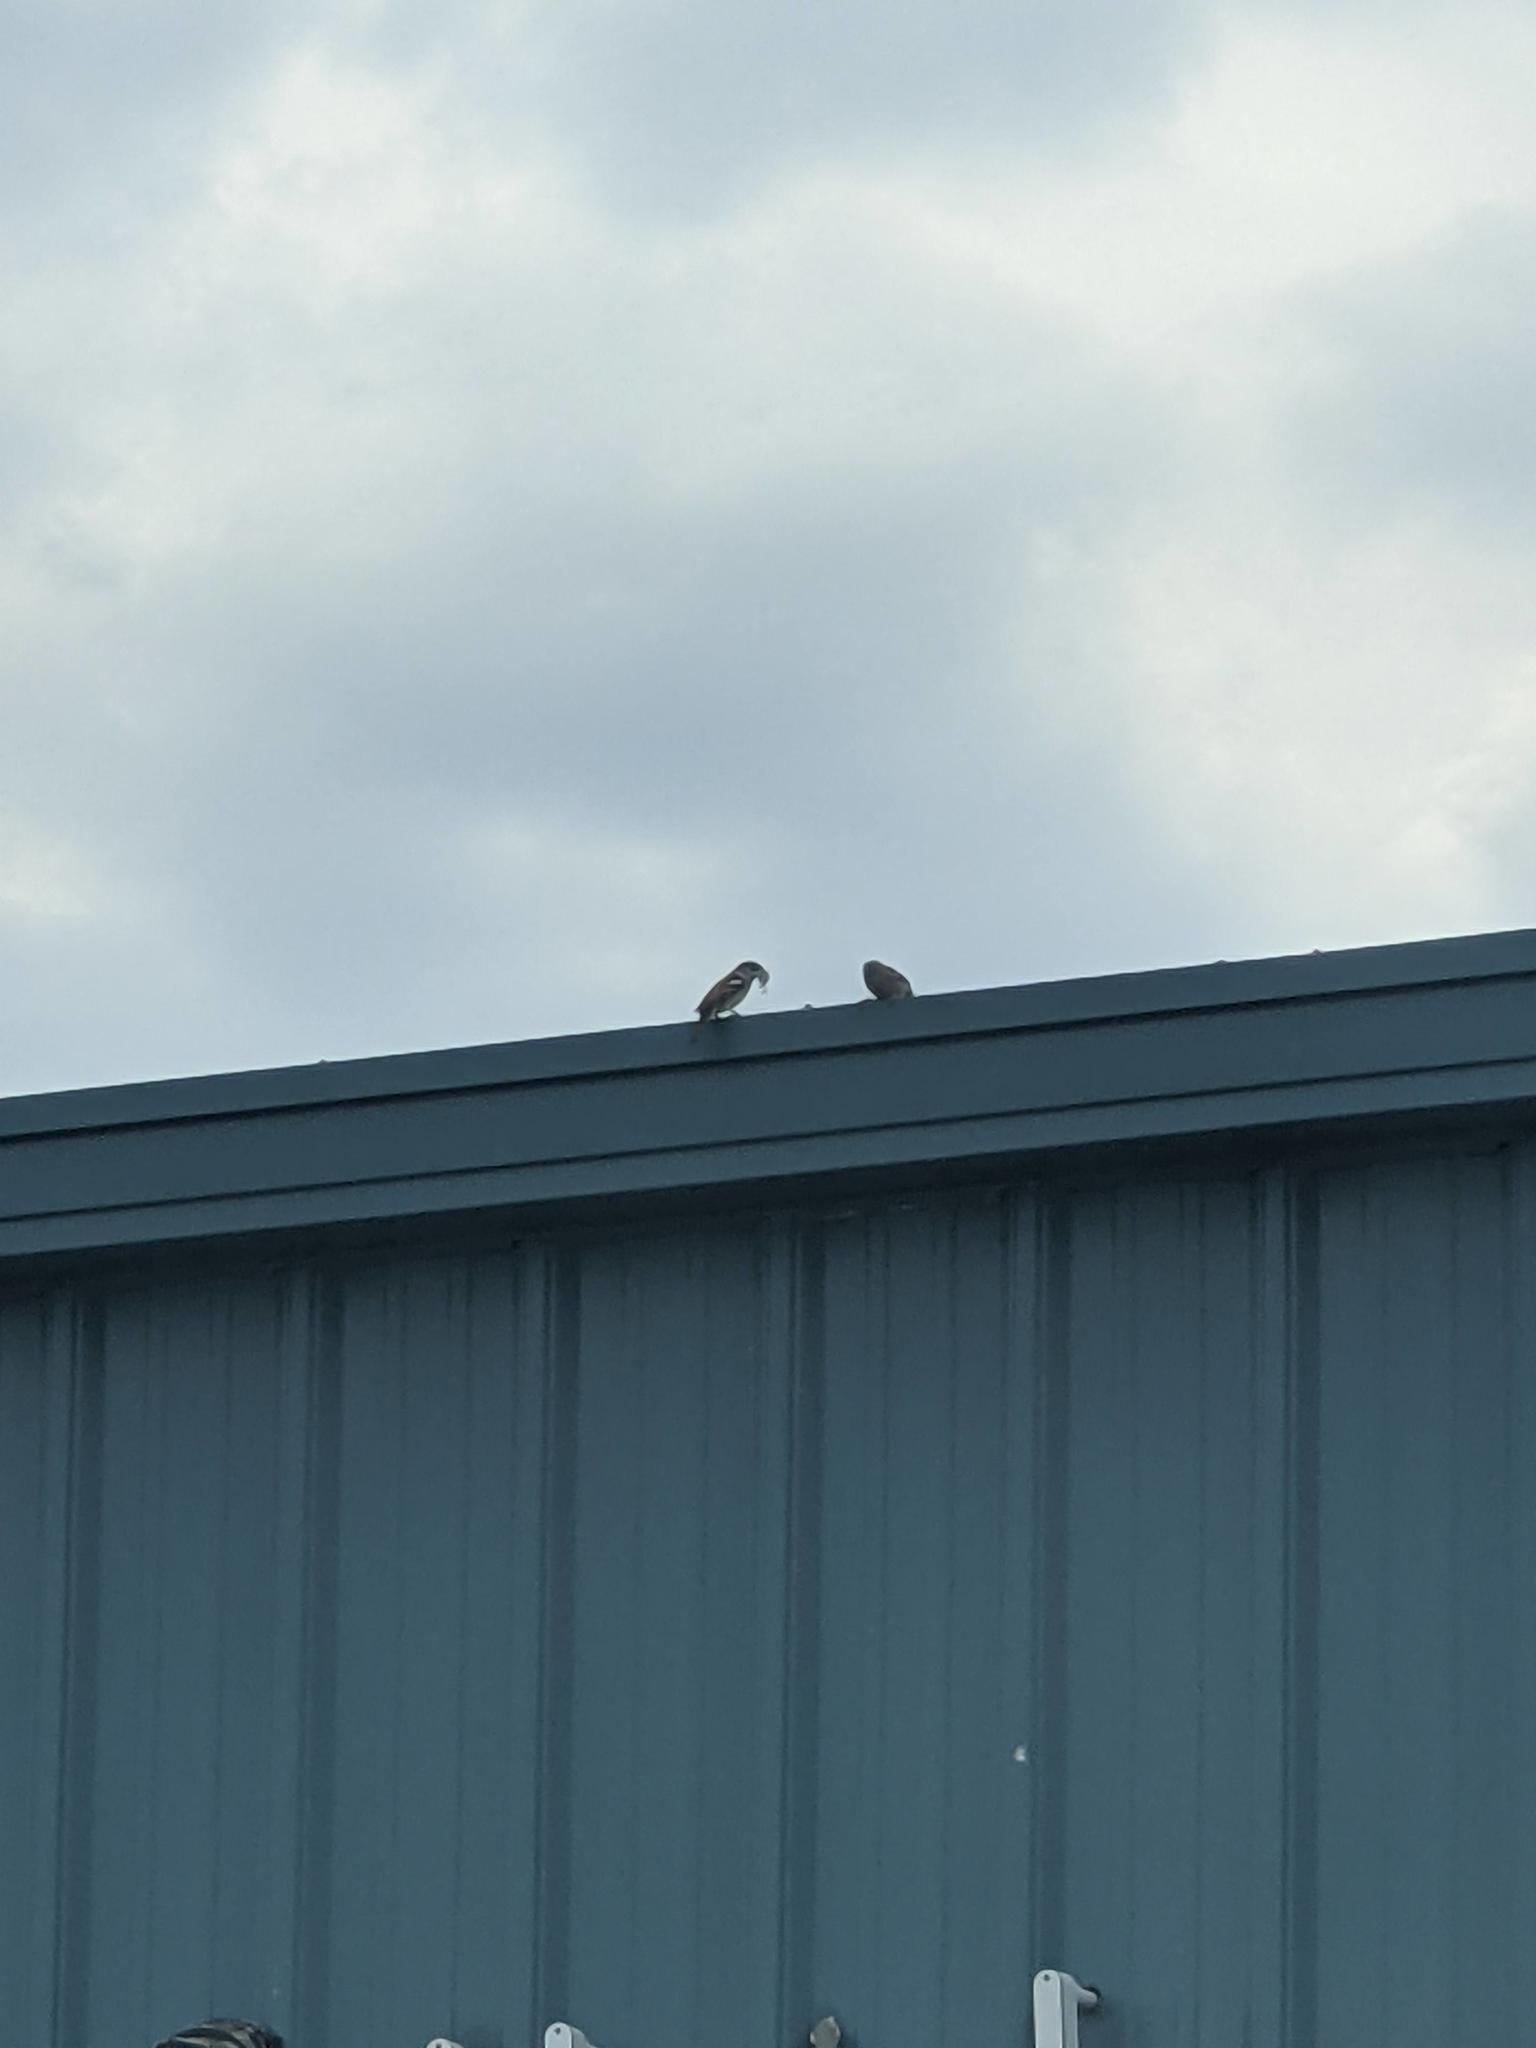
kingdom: Animalia
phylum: Chordata
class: Aves
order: Passeriformes
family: Passeridae
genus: Passer
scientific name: Passer domesticus
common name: House sparrow
